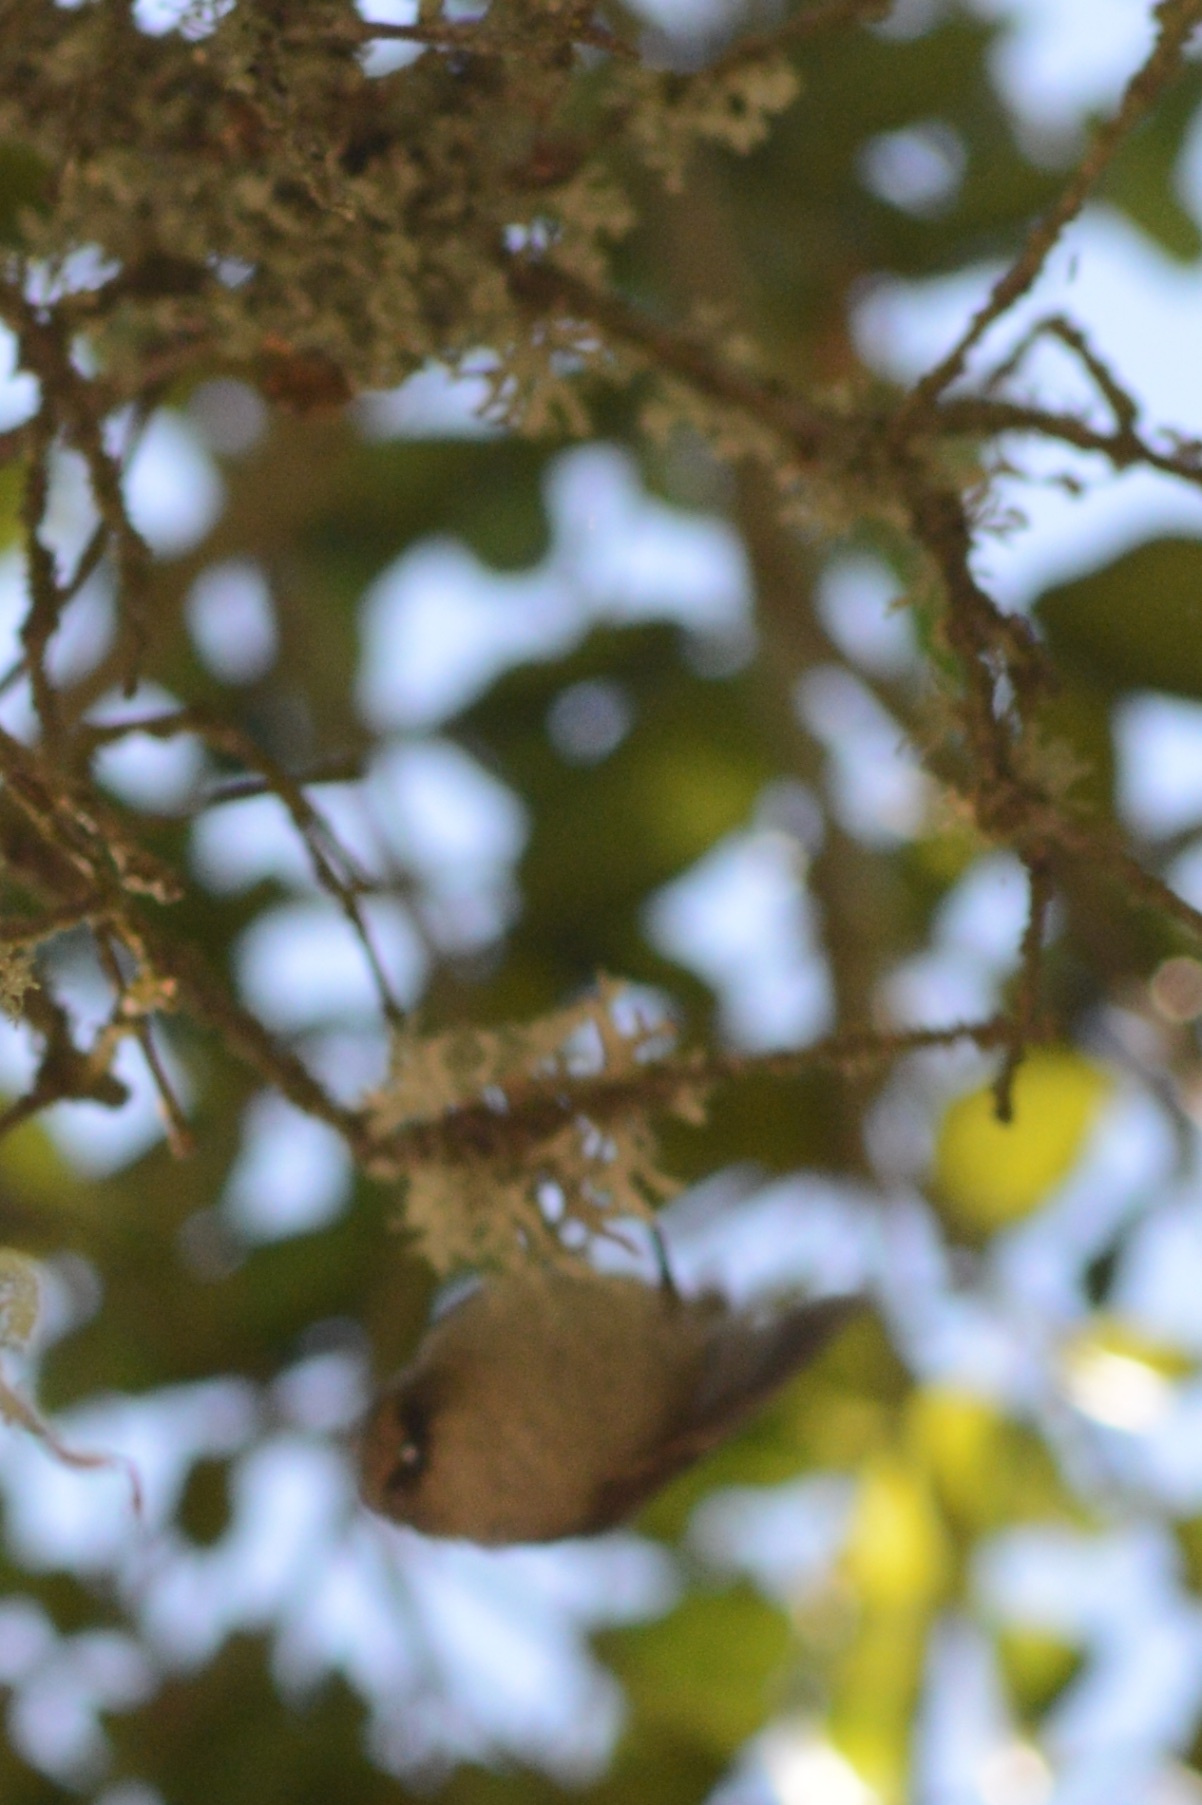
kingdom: Animalia
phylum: Chordata
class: Aves
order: Passeriformes
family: Aegithalidae
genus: Psaltriparus
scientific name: Psaltriparus minimus
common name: American bushtit
